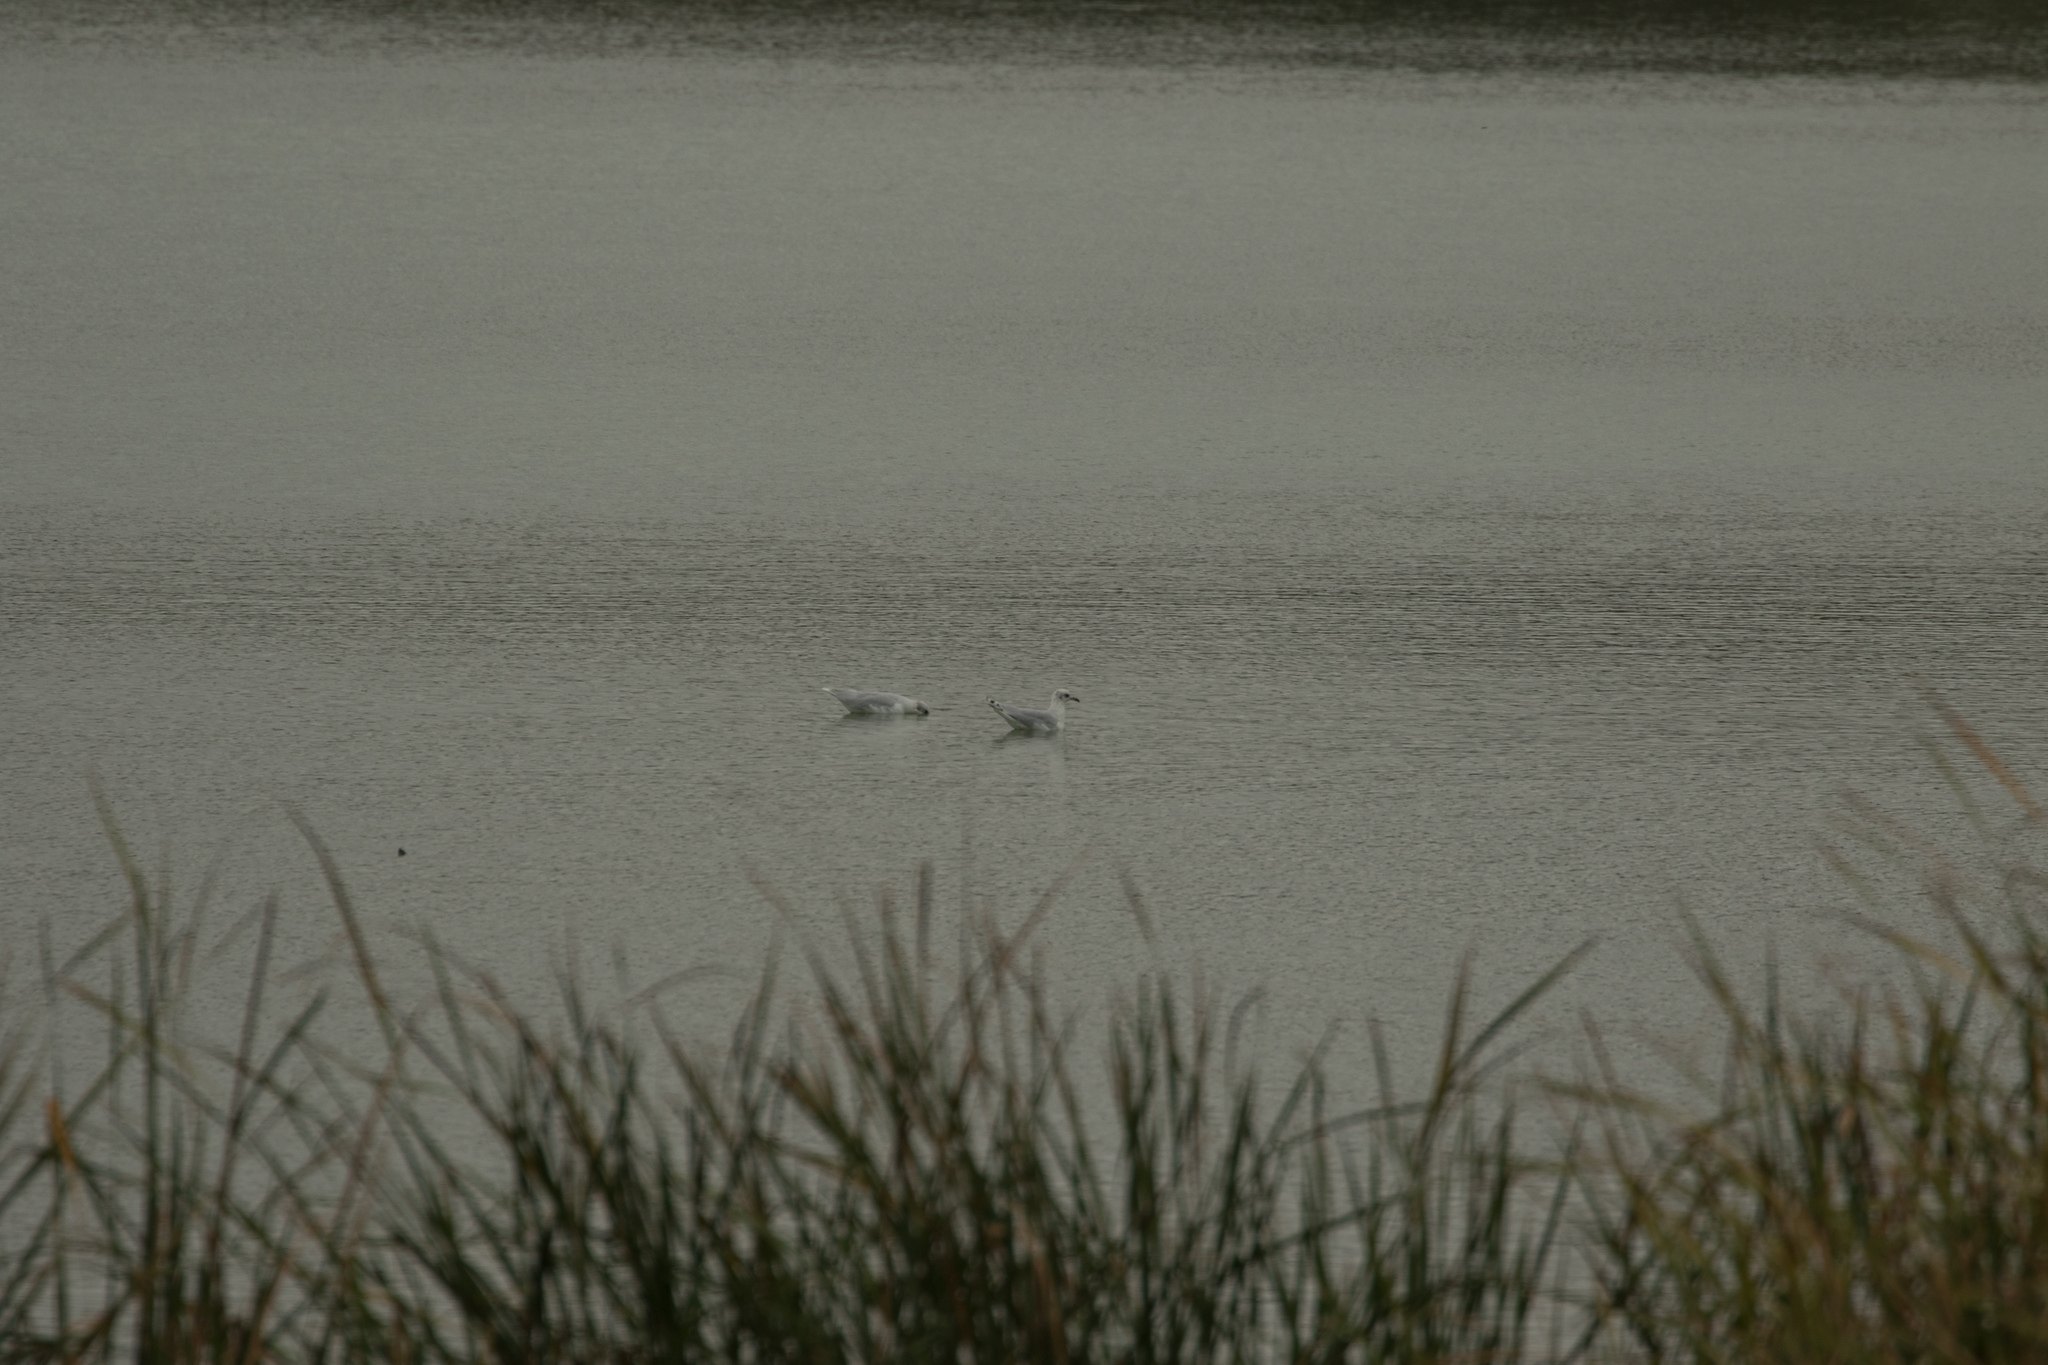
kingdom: Animalia
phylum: Chordata
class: Aves
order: Charadriiformes
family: Laridae
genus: Ichthyaetus
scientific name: Ichthyaetus melanocephalus
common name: Mediterranean gull
